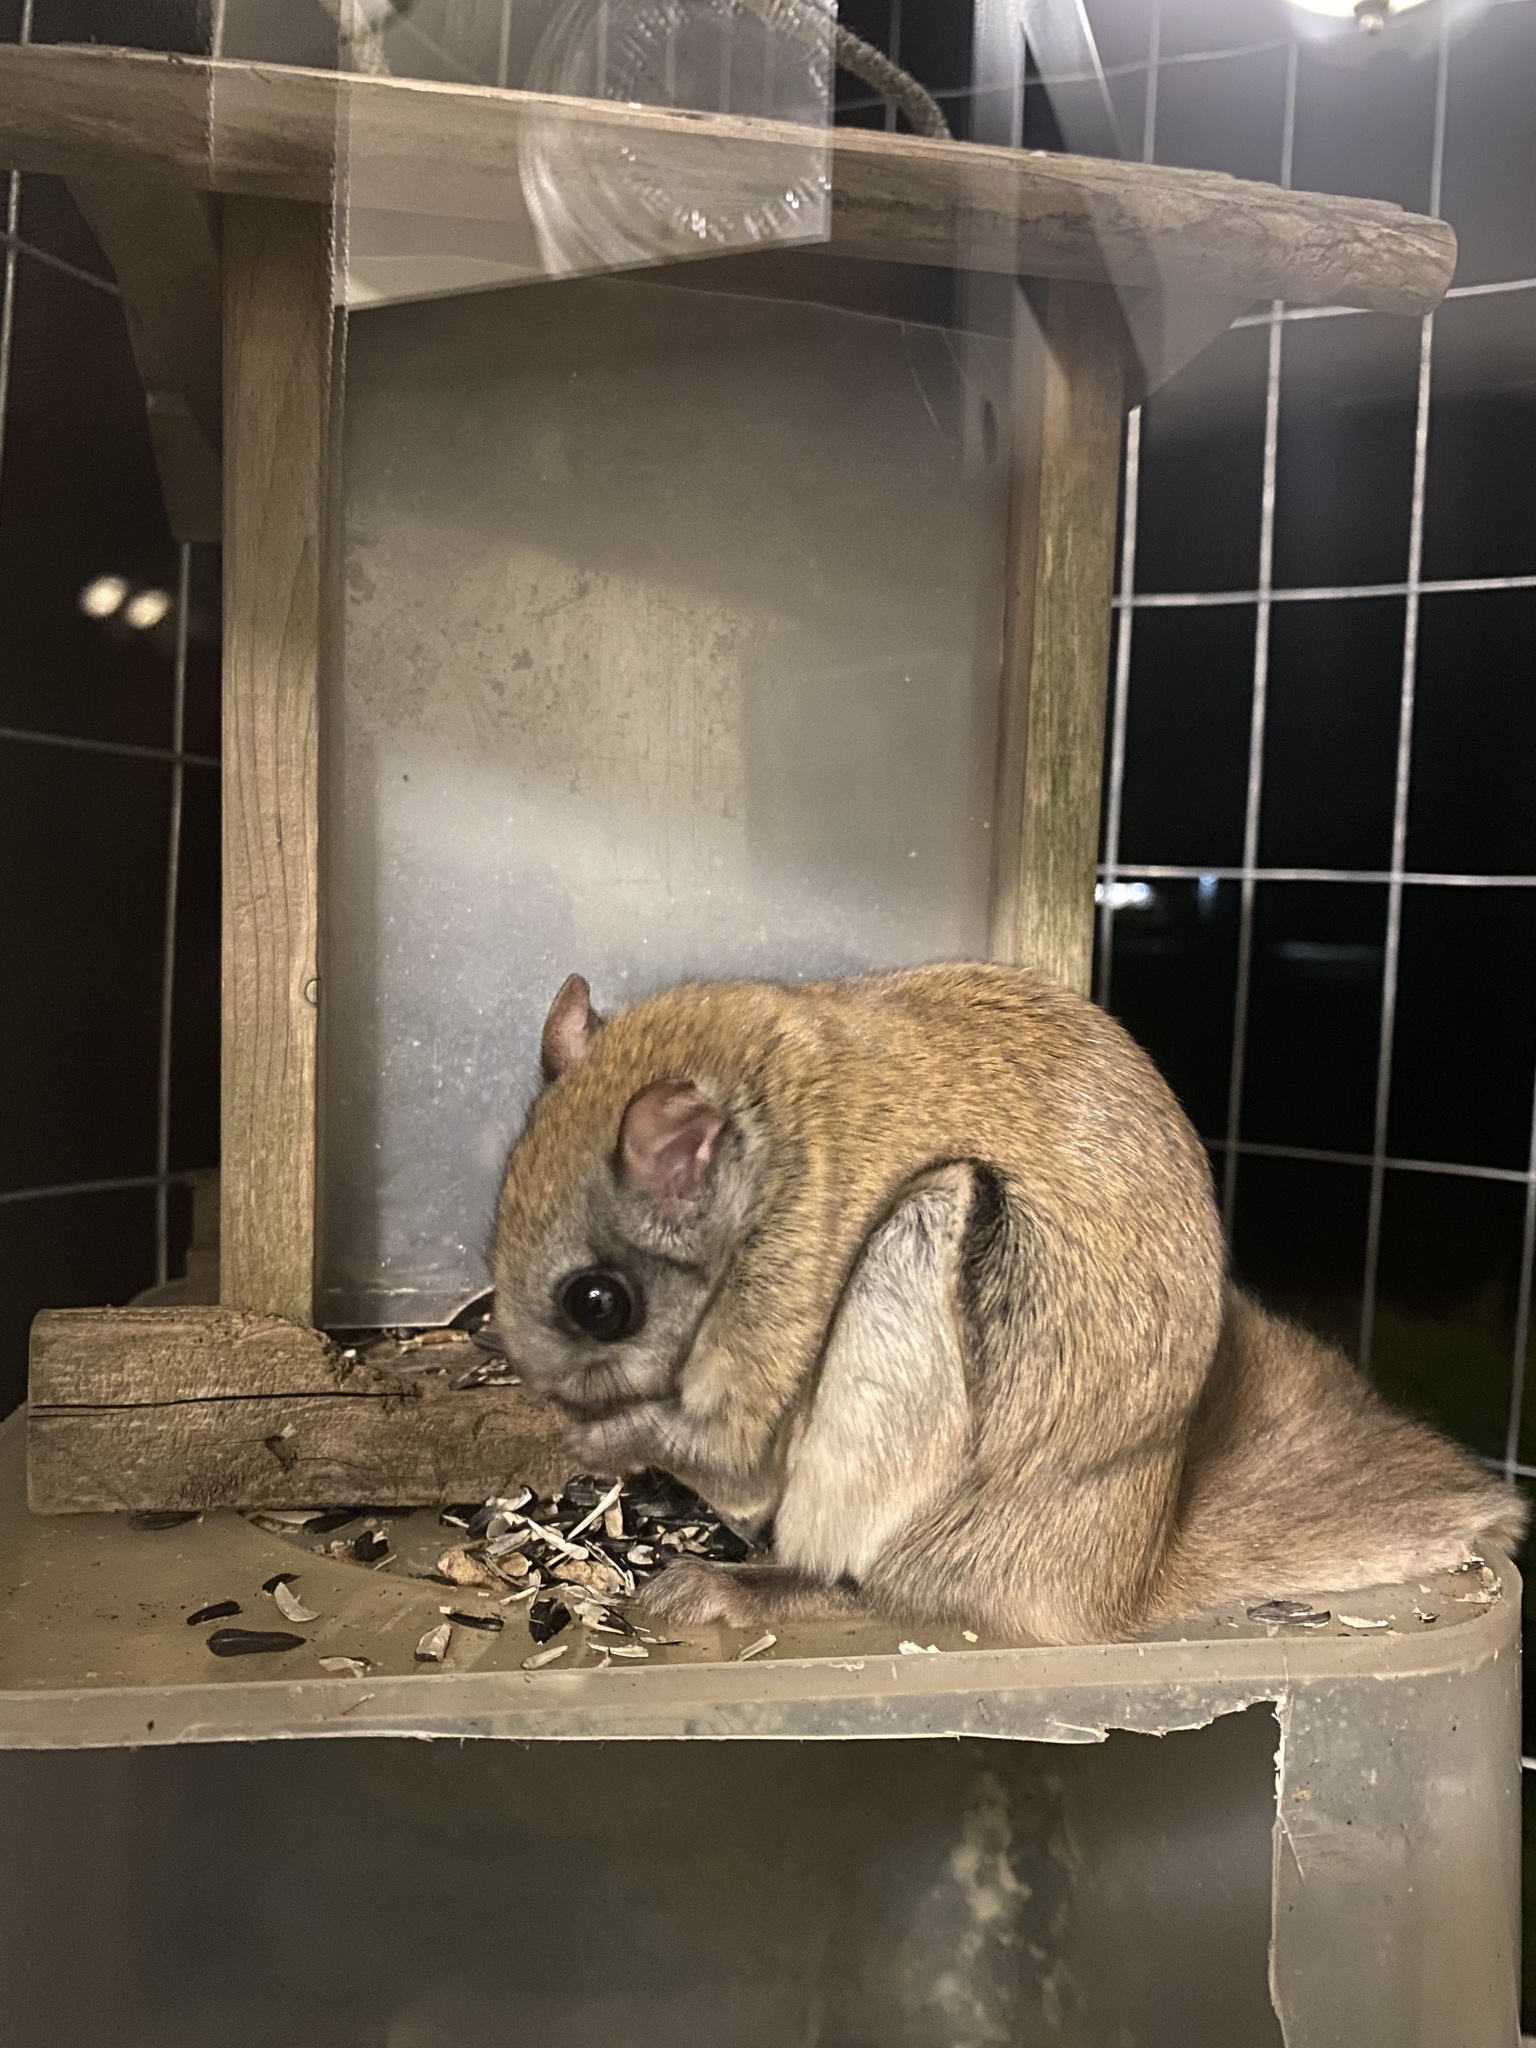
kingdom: Animalia
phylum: Chordata
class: Mammalia
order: Rodentia
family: Sciuridae
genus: Glaucomys
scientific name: Glaucomys sabrinus
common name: Northern flying squirrel
